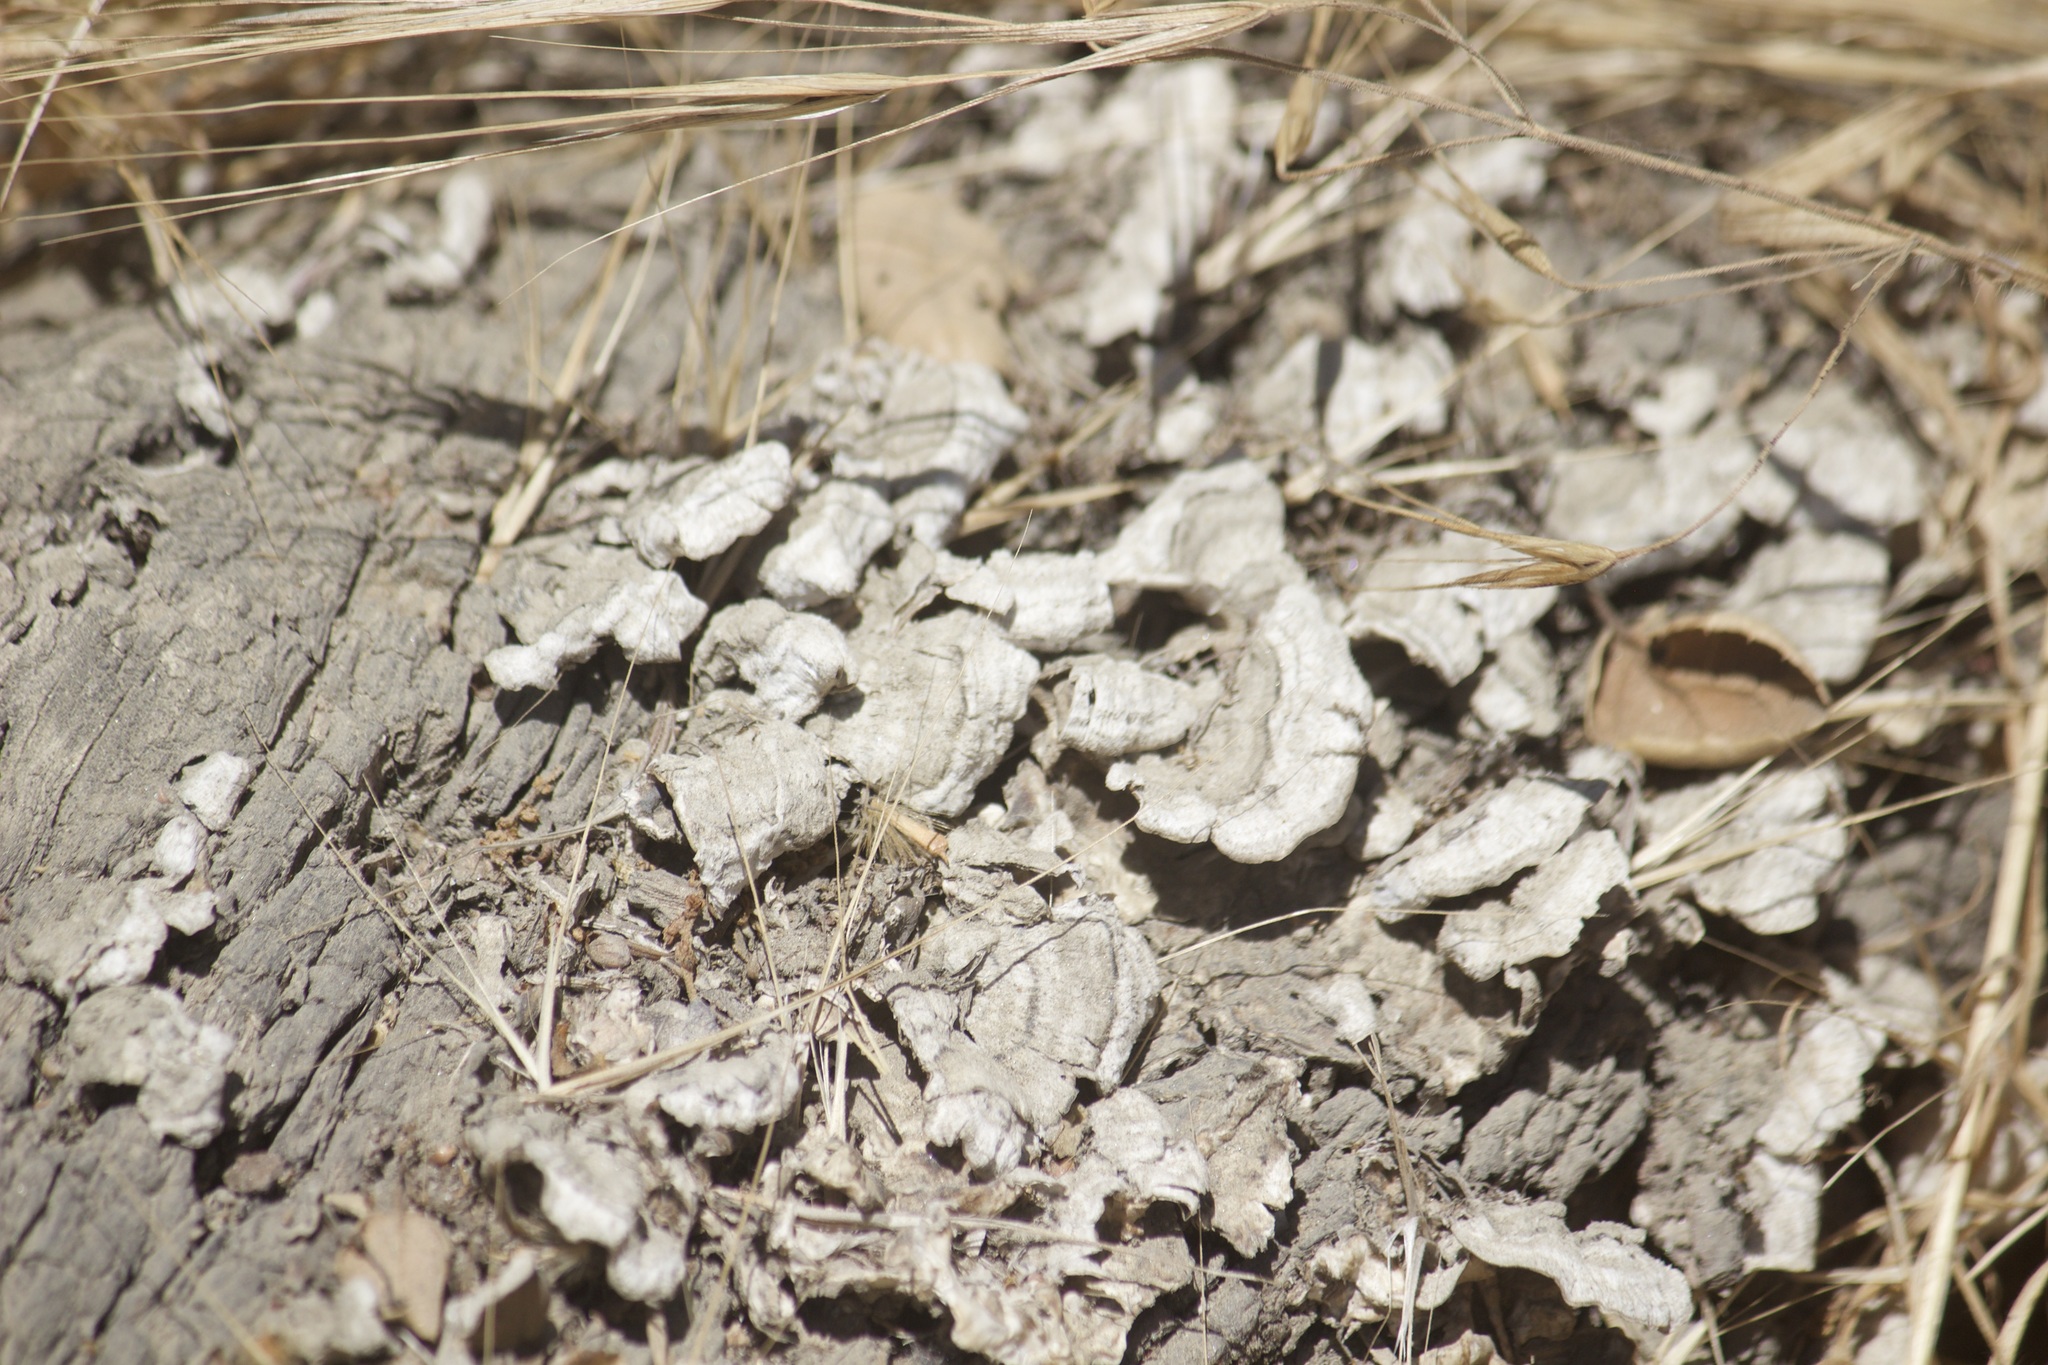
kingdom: Fungi
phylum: Basidiomycota
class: Agaricomycetes
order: Russulales
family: Stereaceae
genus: Stereum
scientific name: Stereum hirsutum
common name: Hairy curtain crust
